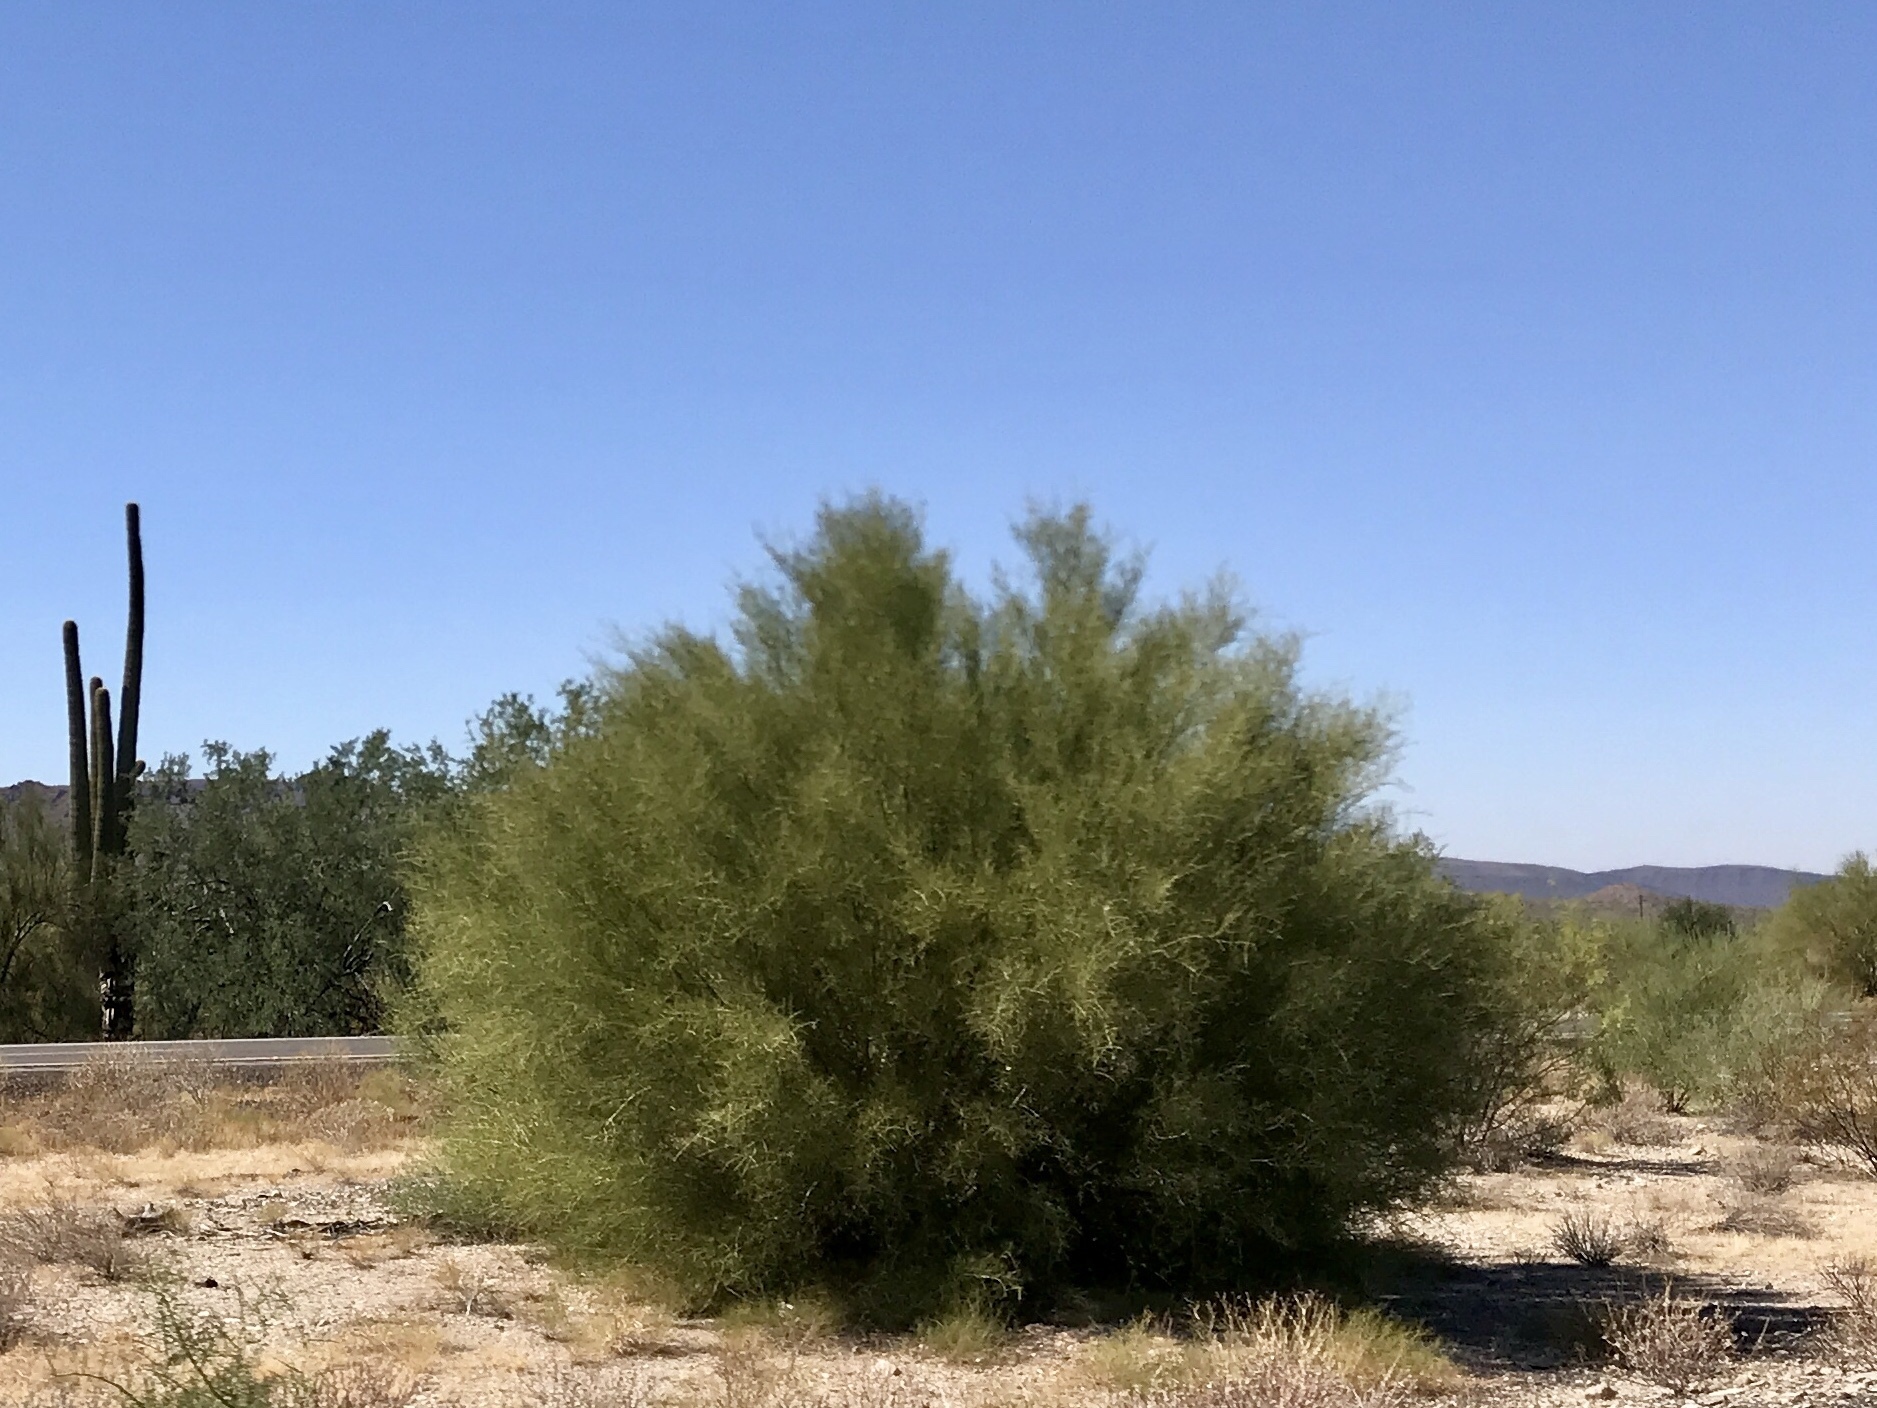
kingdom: Plantae
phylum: Tracheophyta
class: Magnoliopsida
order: Fabales
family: Fabaceae
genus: Parkinsonia
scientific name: Parkinsonia florida
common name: Blue paloverde
